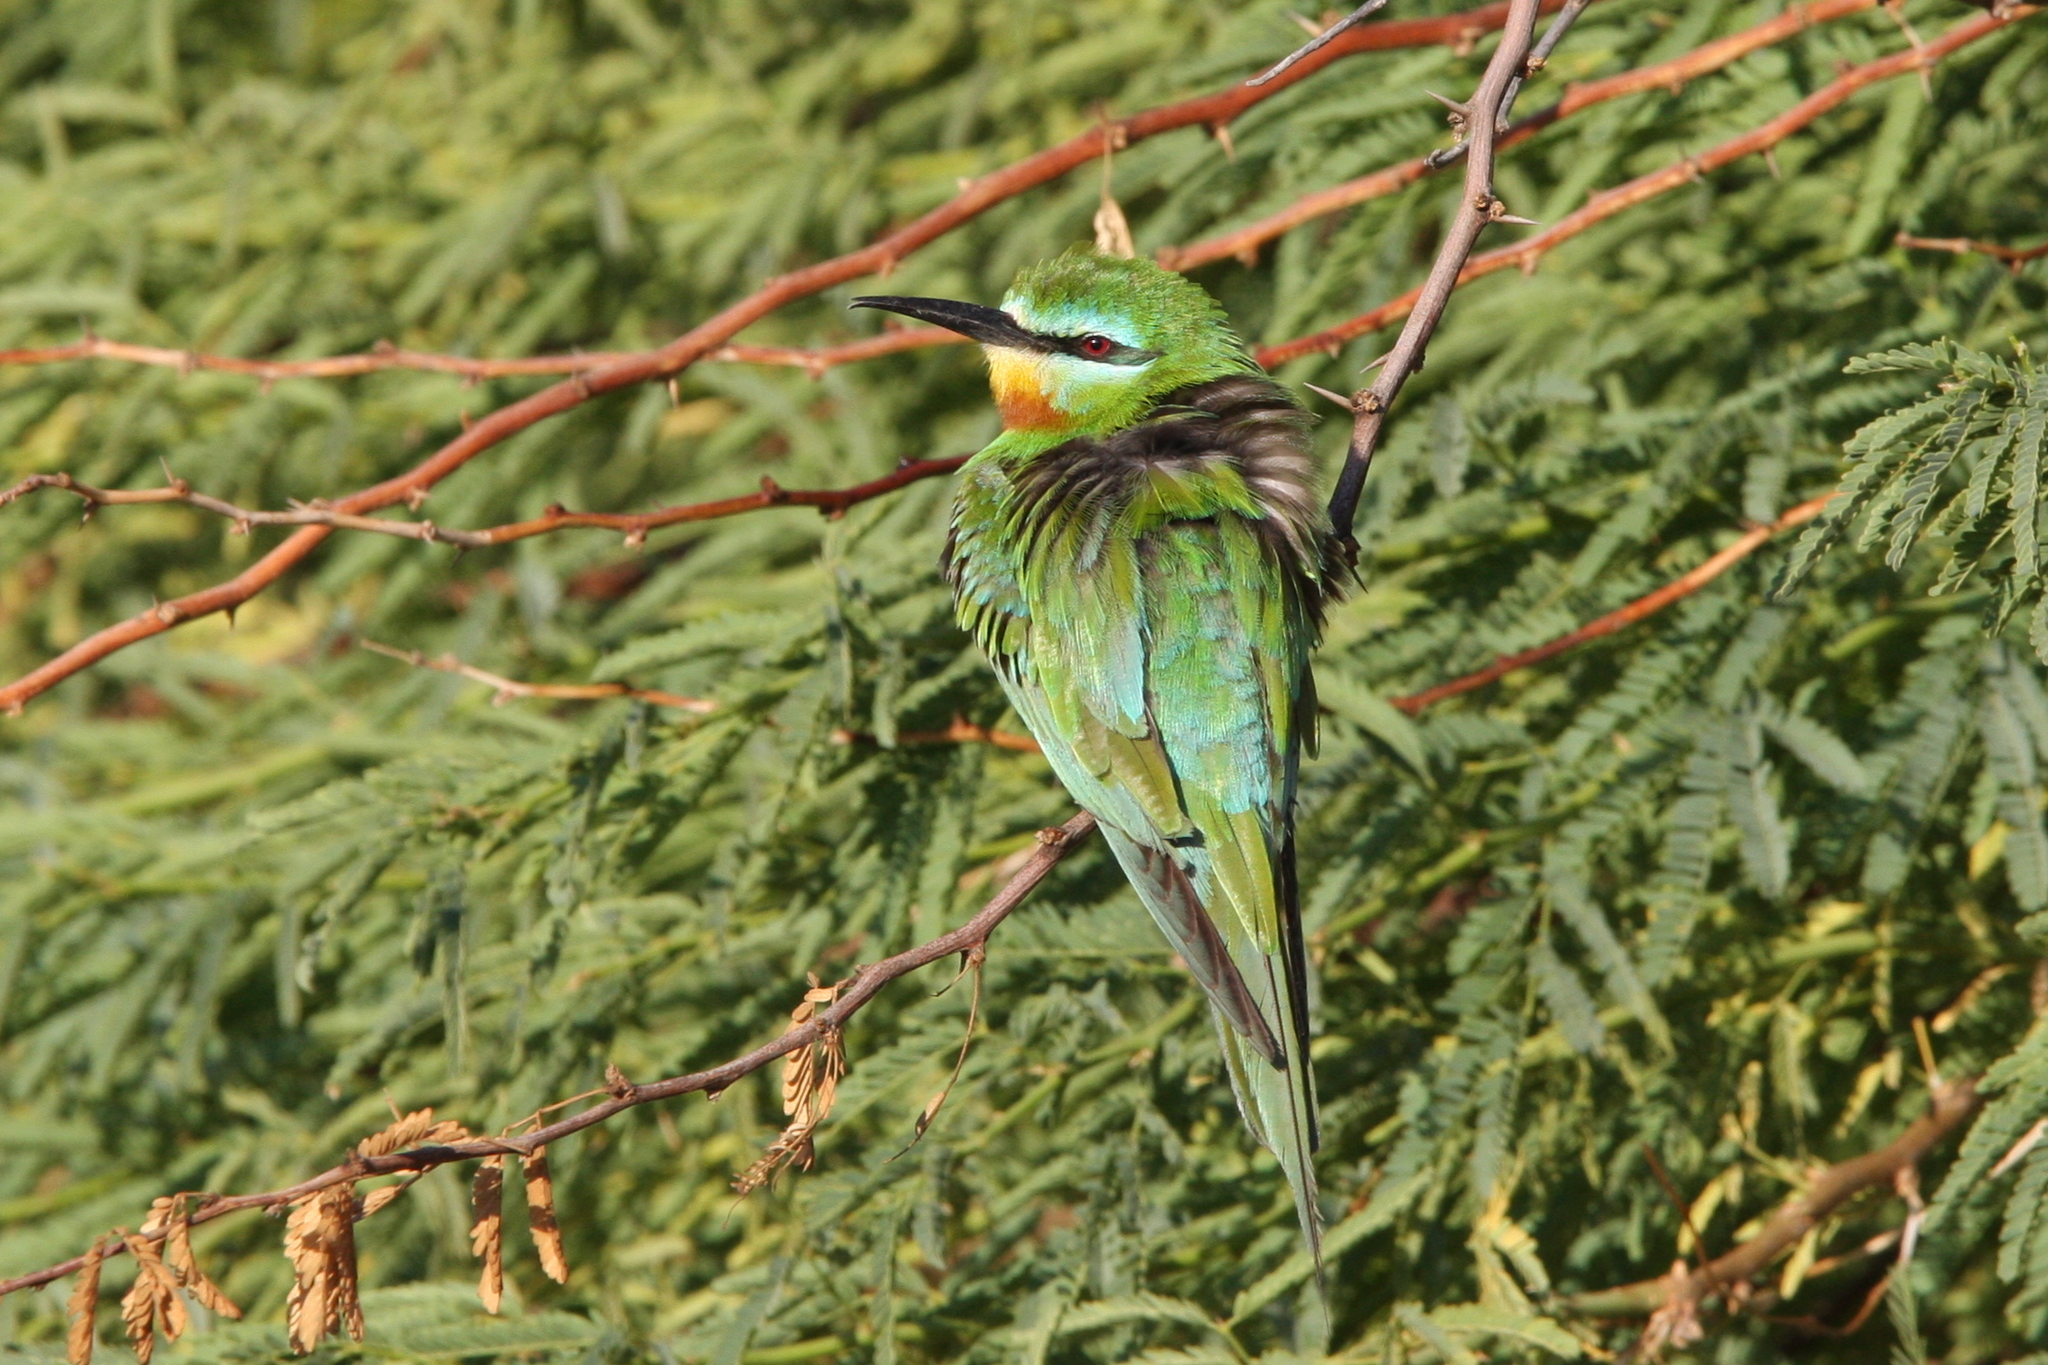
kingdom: Animalia
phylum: Chordata
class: Aves
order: Coraciiformes
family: Meropidae
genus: Merops
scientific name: Merops persicus
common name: Blue-cheeked bee-eater
